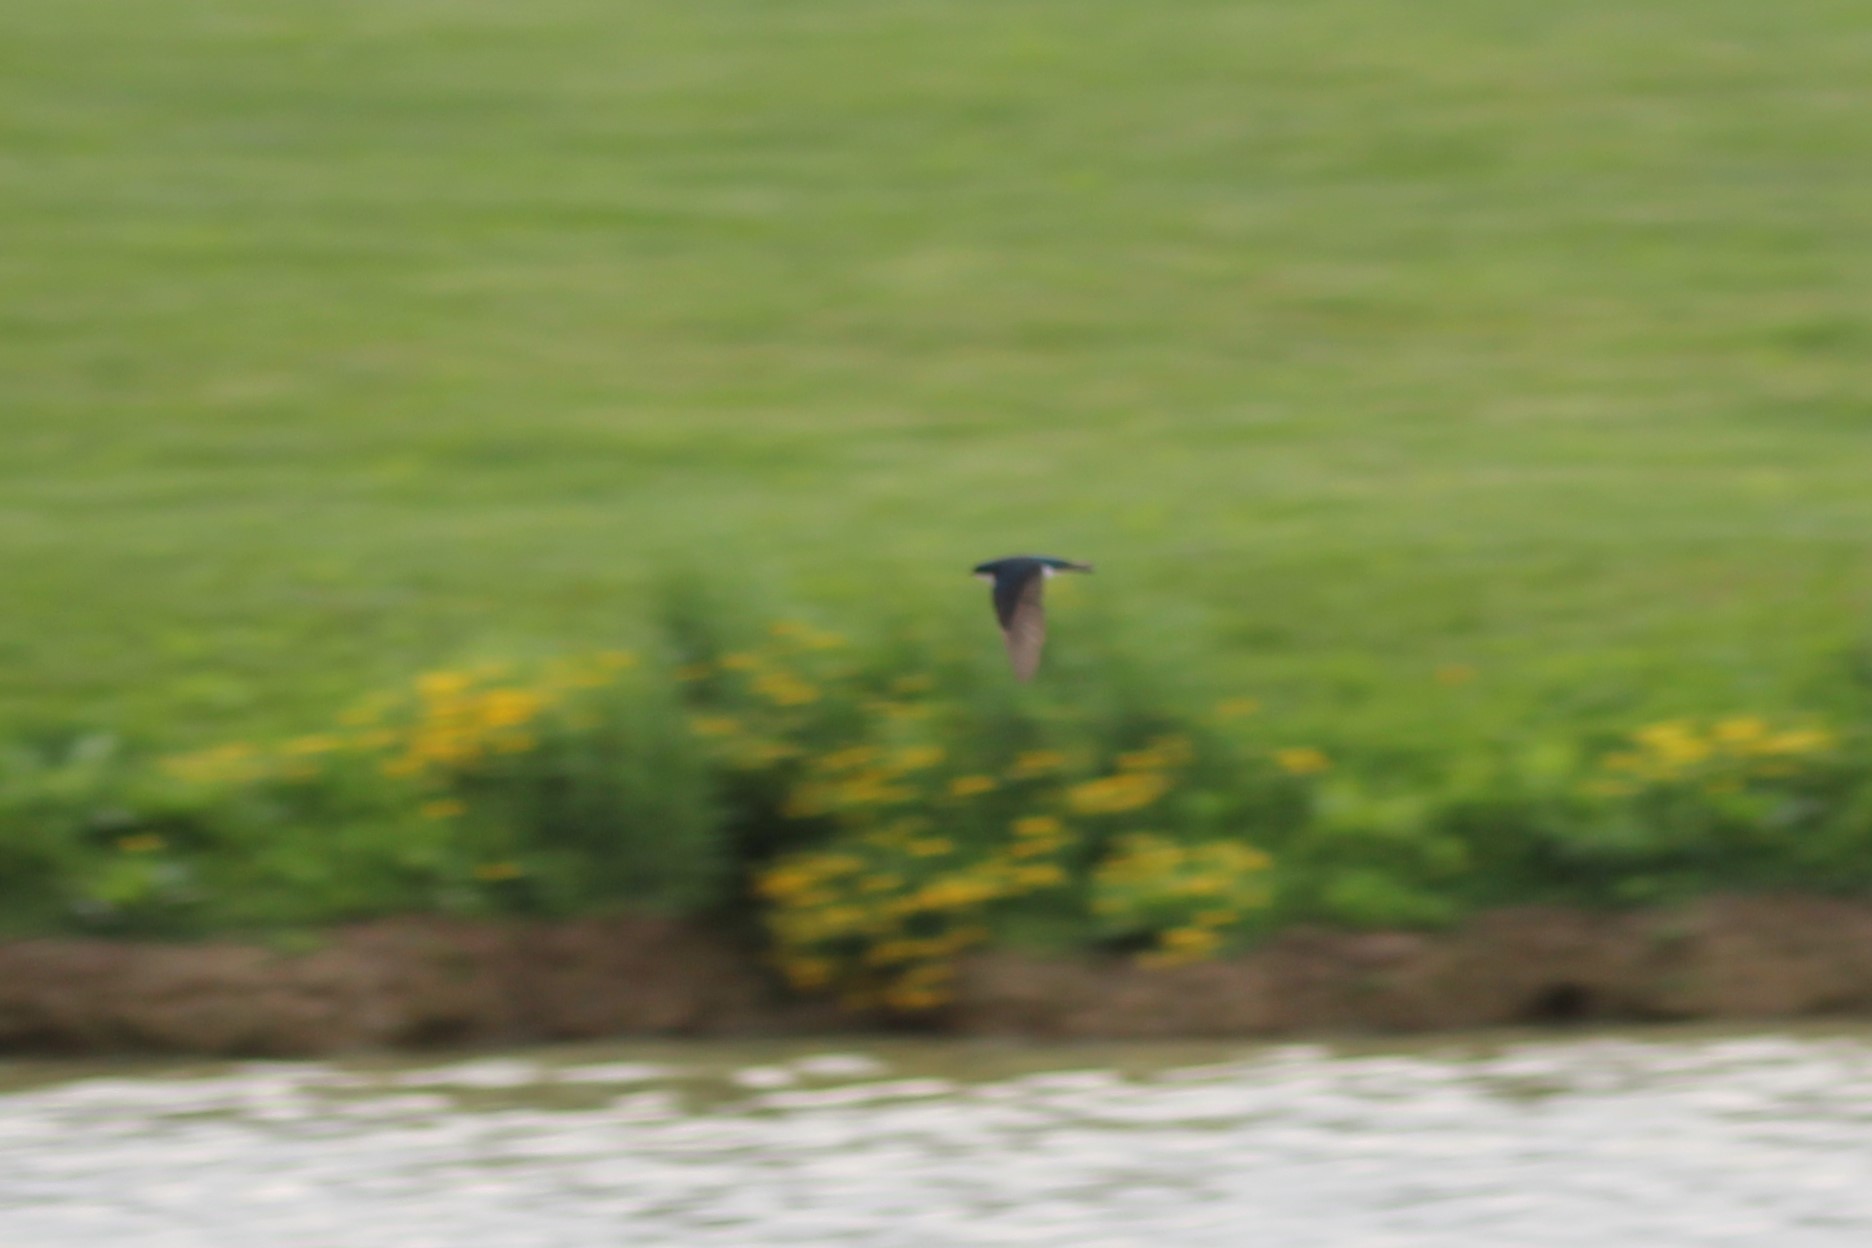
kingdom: Animalia
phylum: Chordata
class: Aves
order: Passeriformes
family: Hirundinidae
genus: Tachycineta
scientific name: Tachycineta bicolor
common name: Tree swallow
